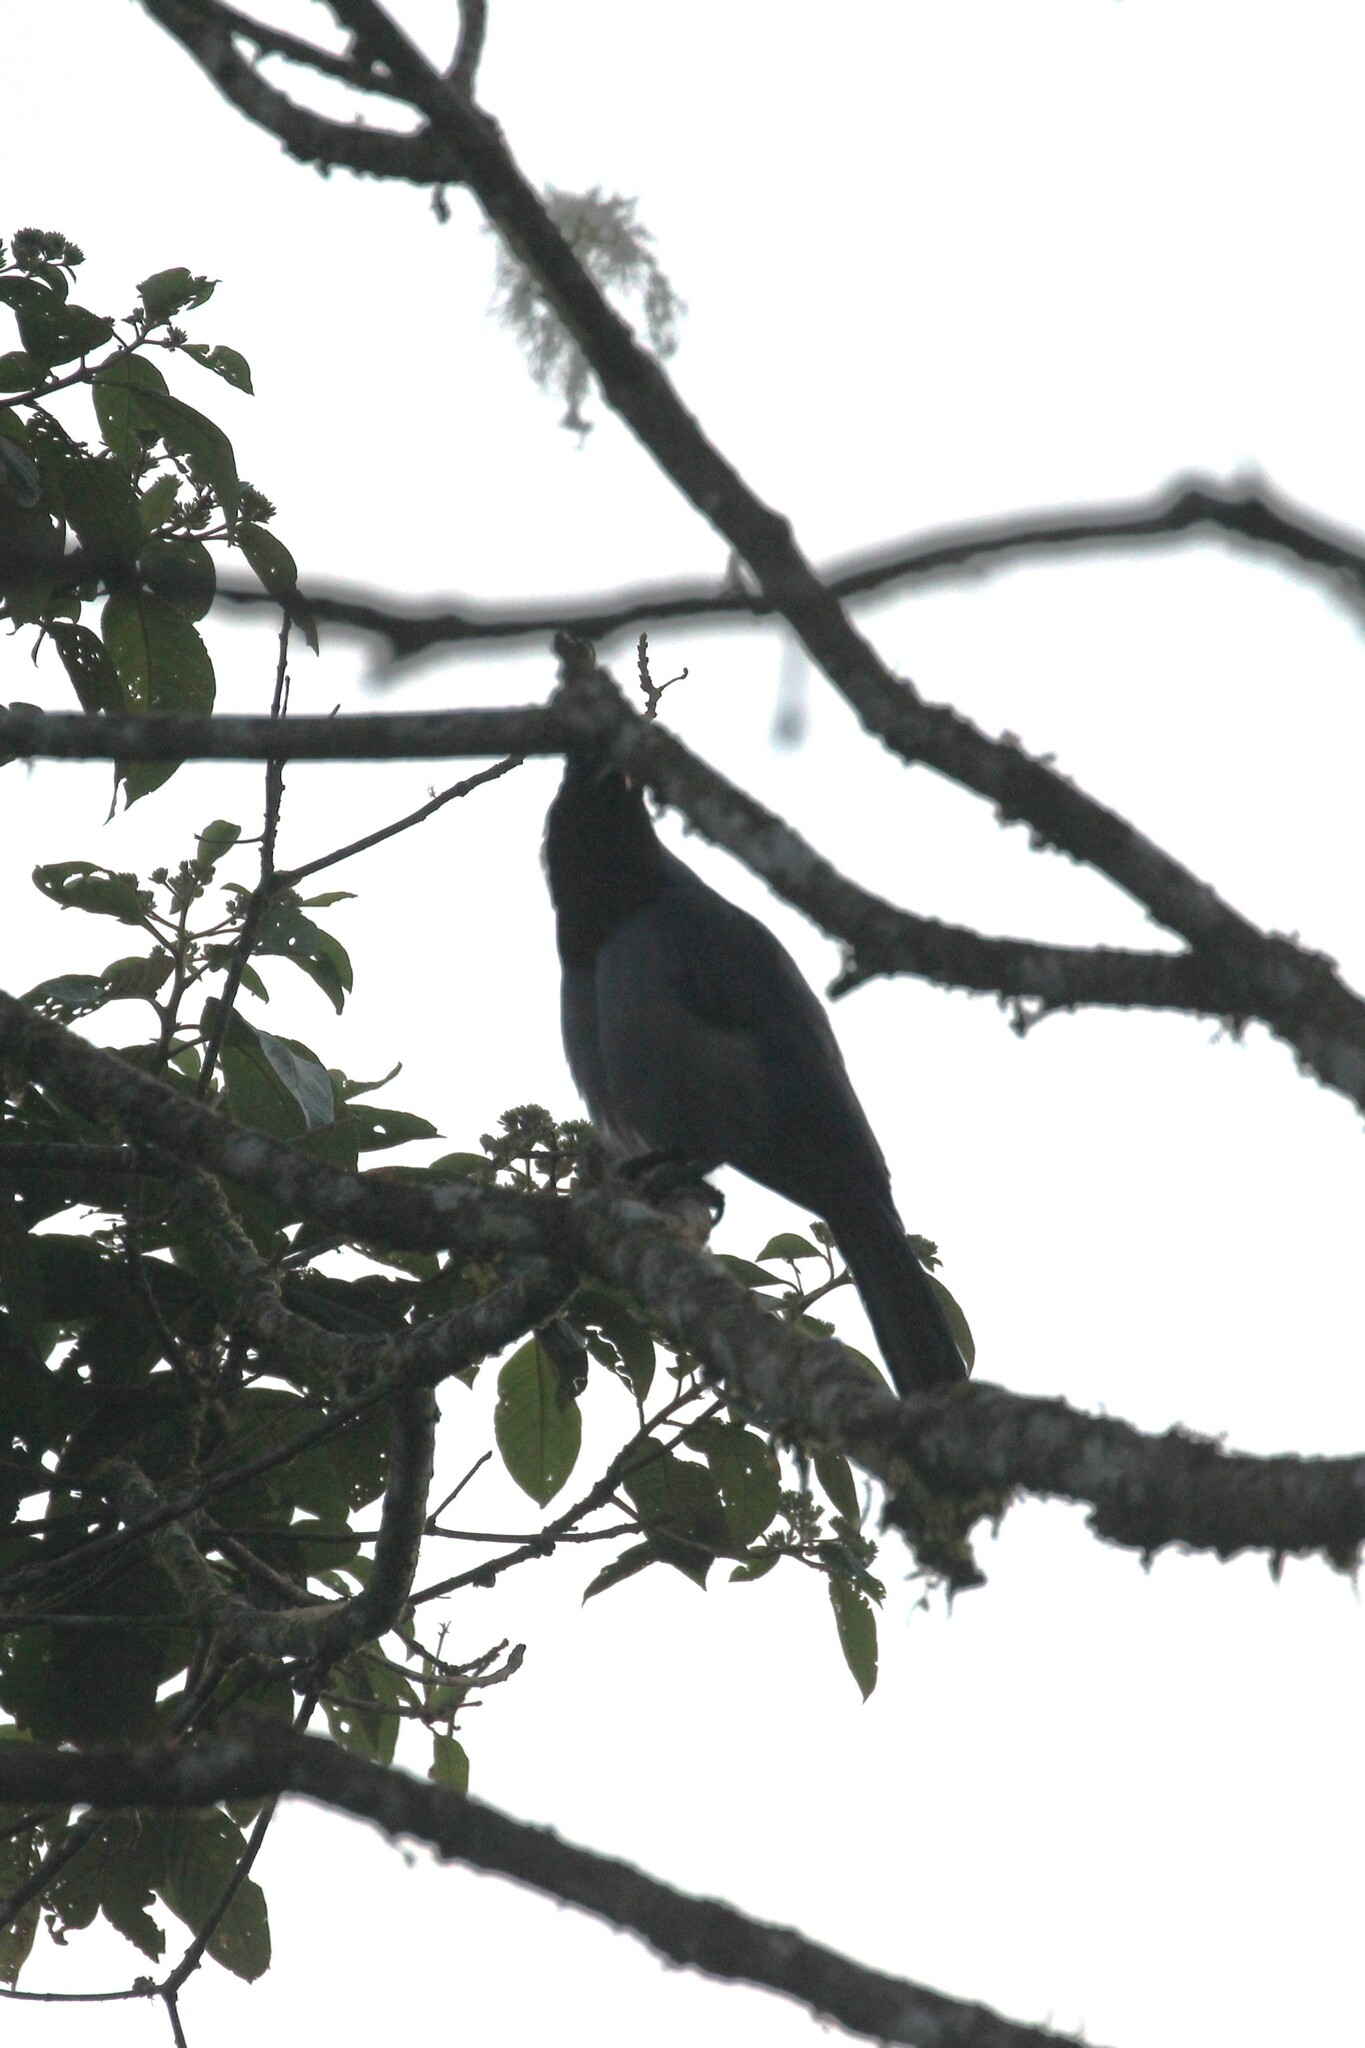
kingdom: Animalia
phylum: Chordata
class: Aves
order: Passeriformes
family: Cotingidae
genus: Cephalopterus
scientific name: Cephalopterus ornatus
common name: Amazonian umbrellabird
